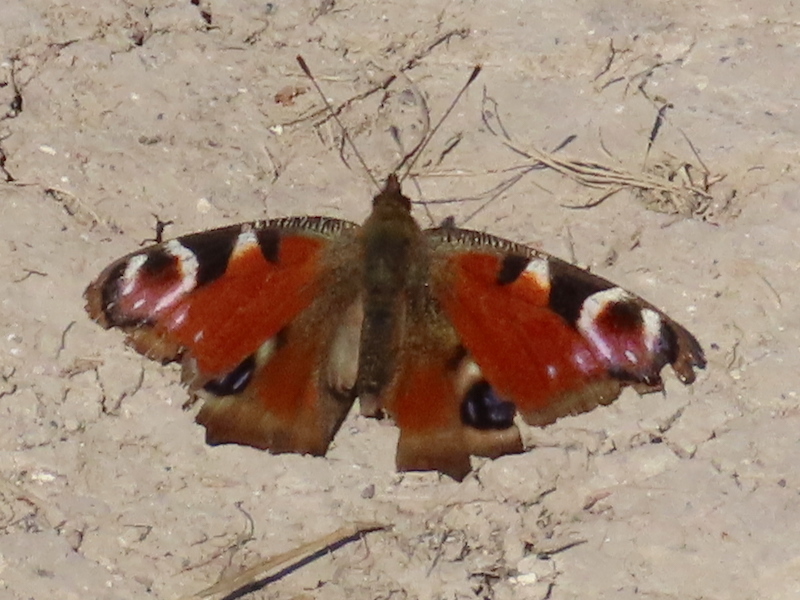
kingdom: Animalia
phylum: Arthropoda
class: Insecta
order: Lepidoptera
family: Nymphalidae
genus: Aglais
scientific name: Aglais io
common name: Peacock
